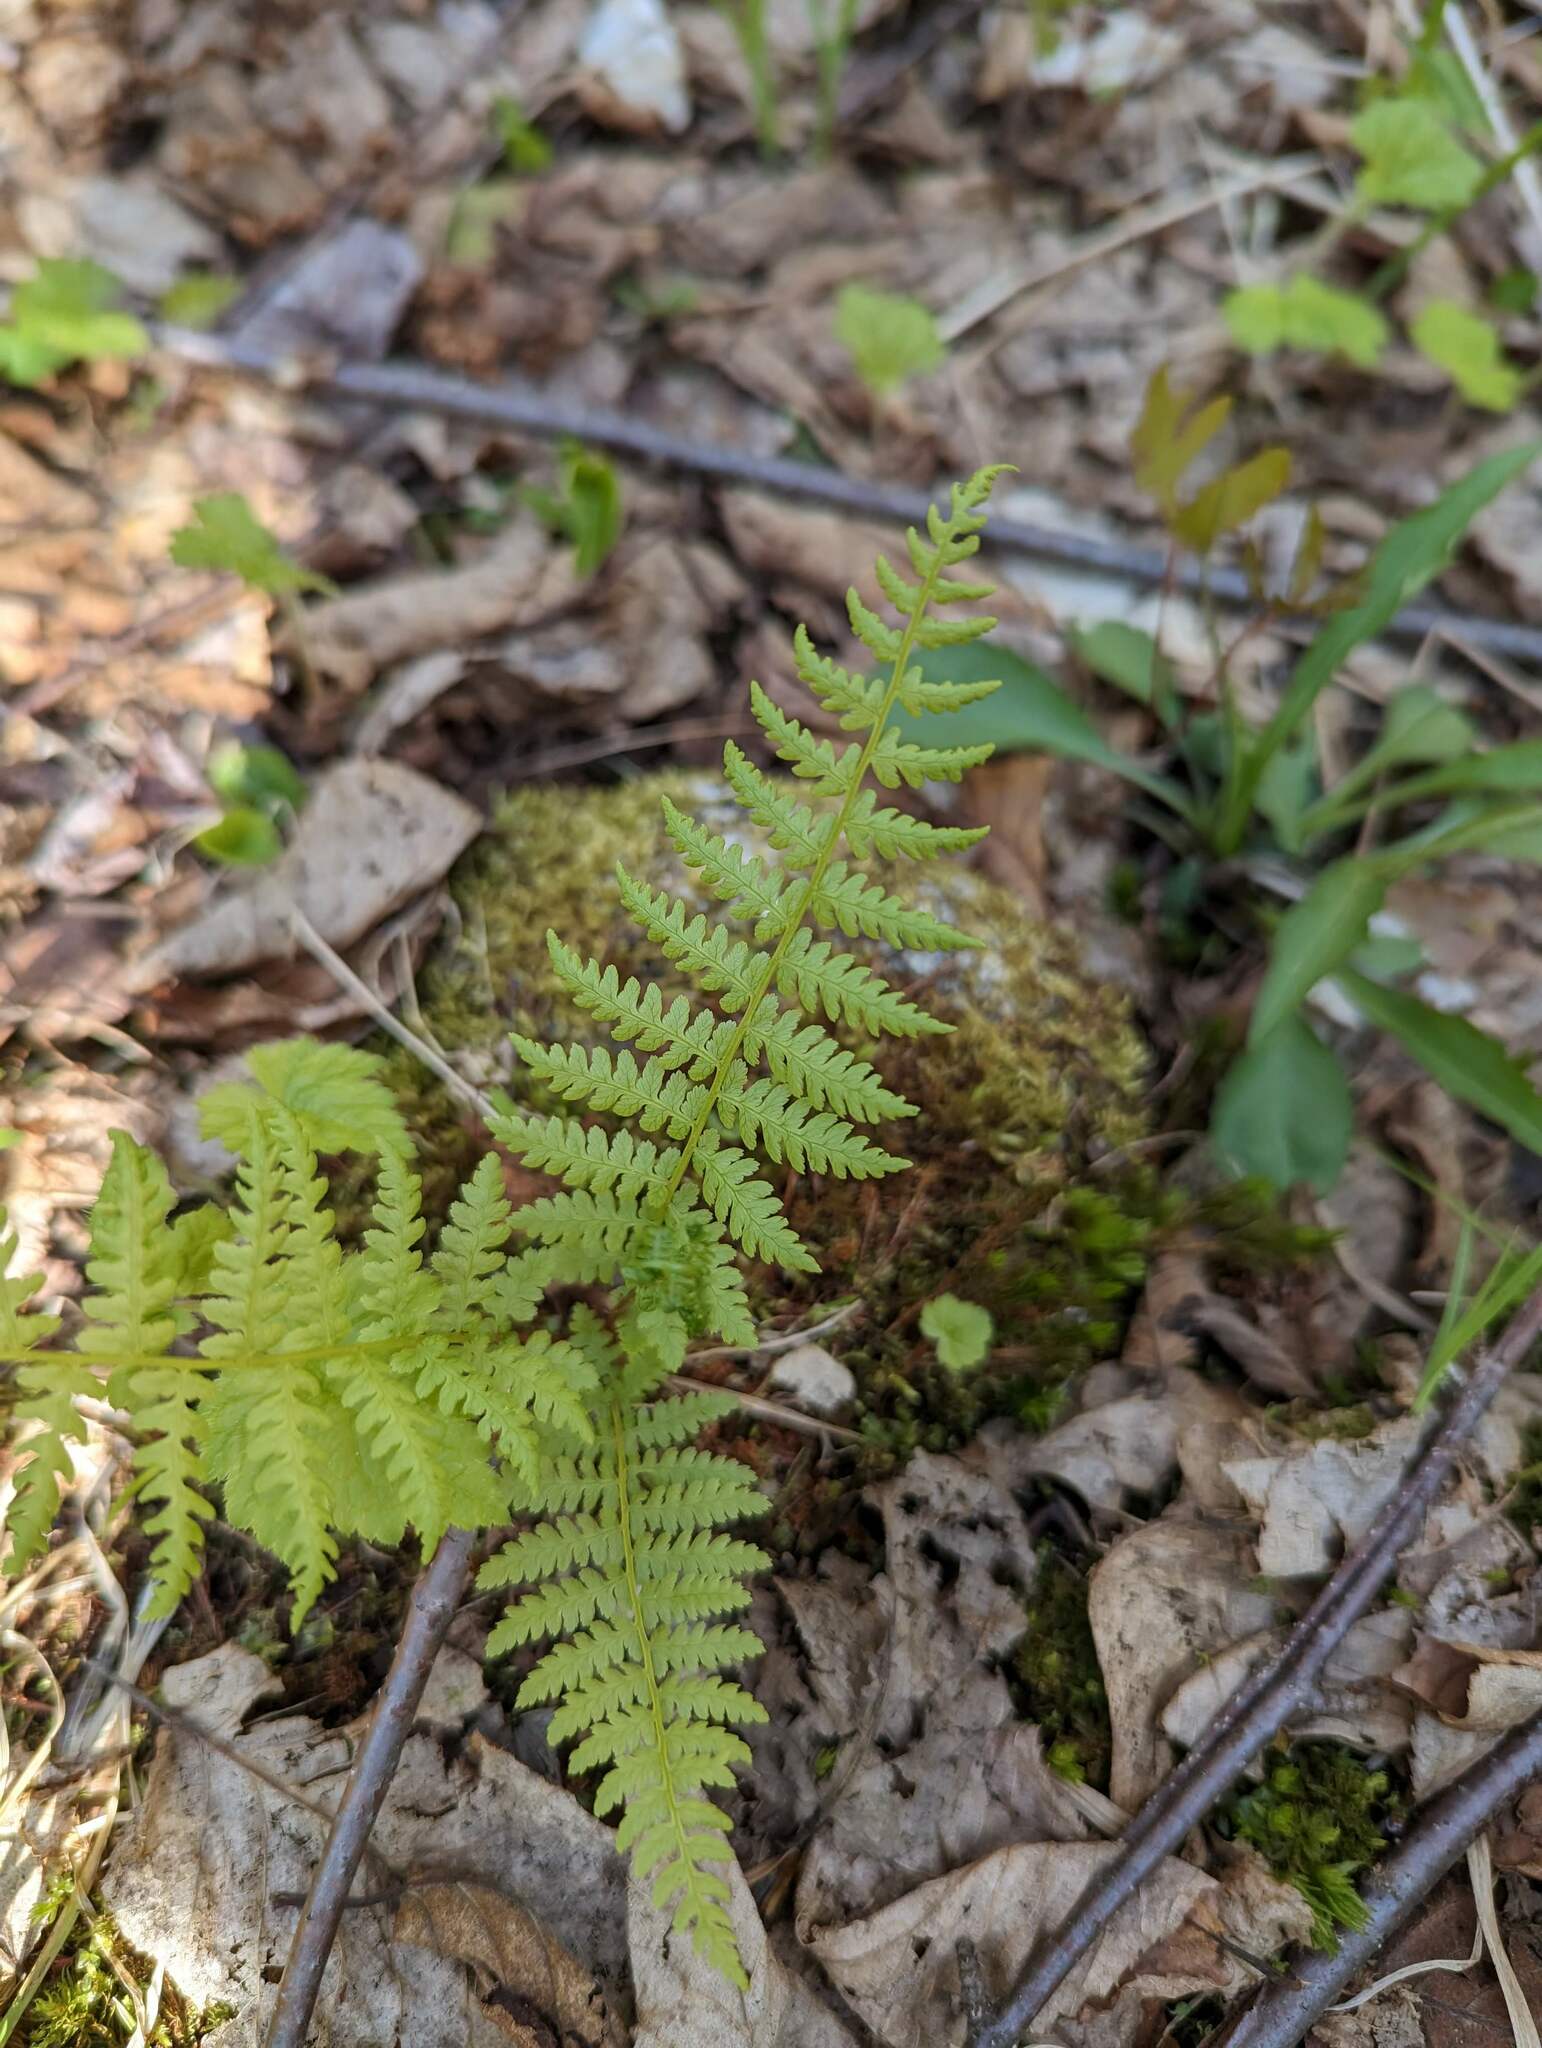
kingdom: Plantae
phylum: Tracheophyta
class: Polypodiopsida
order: Polypodiales
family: Athyriaceae
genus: Athyrium
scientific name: Athyrium angustum
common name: Northern lady fern
